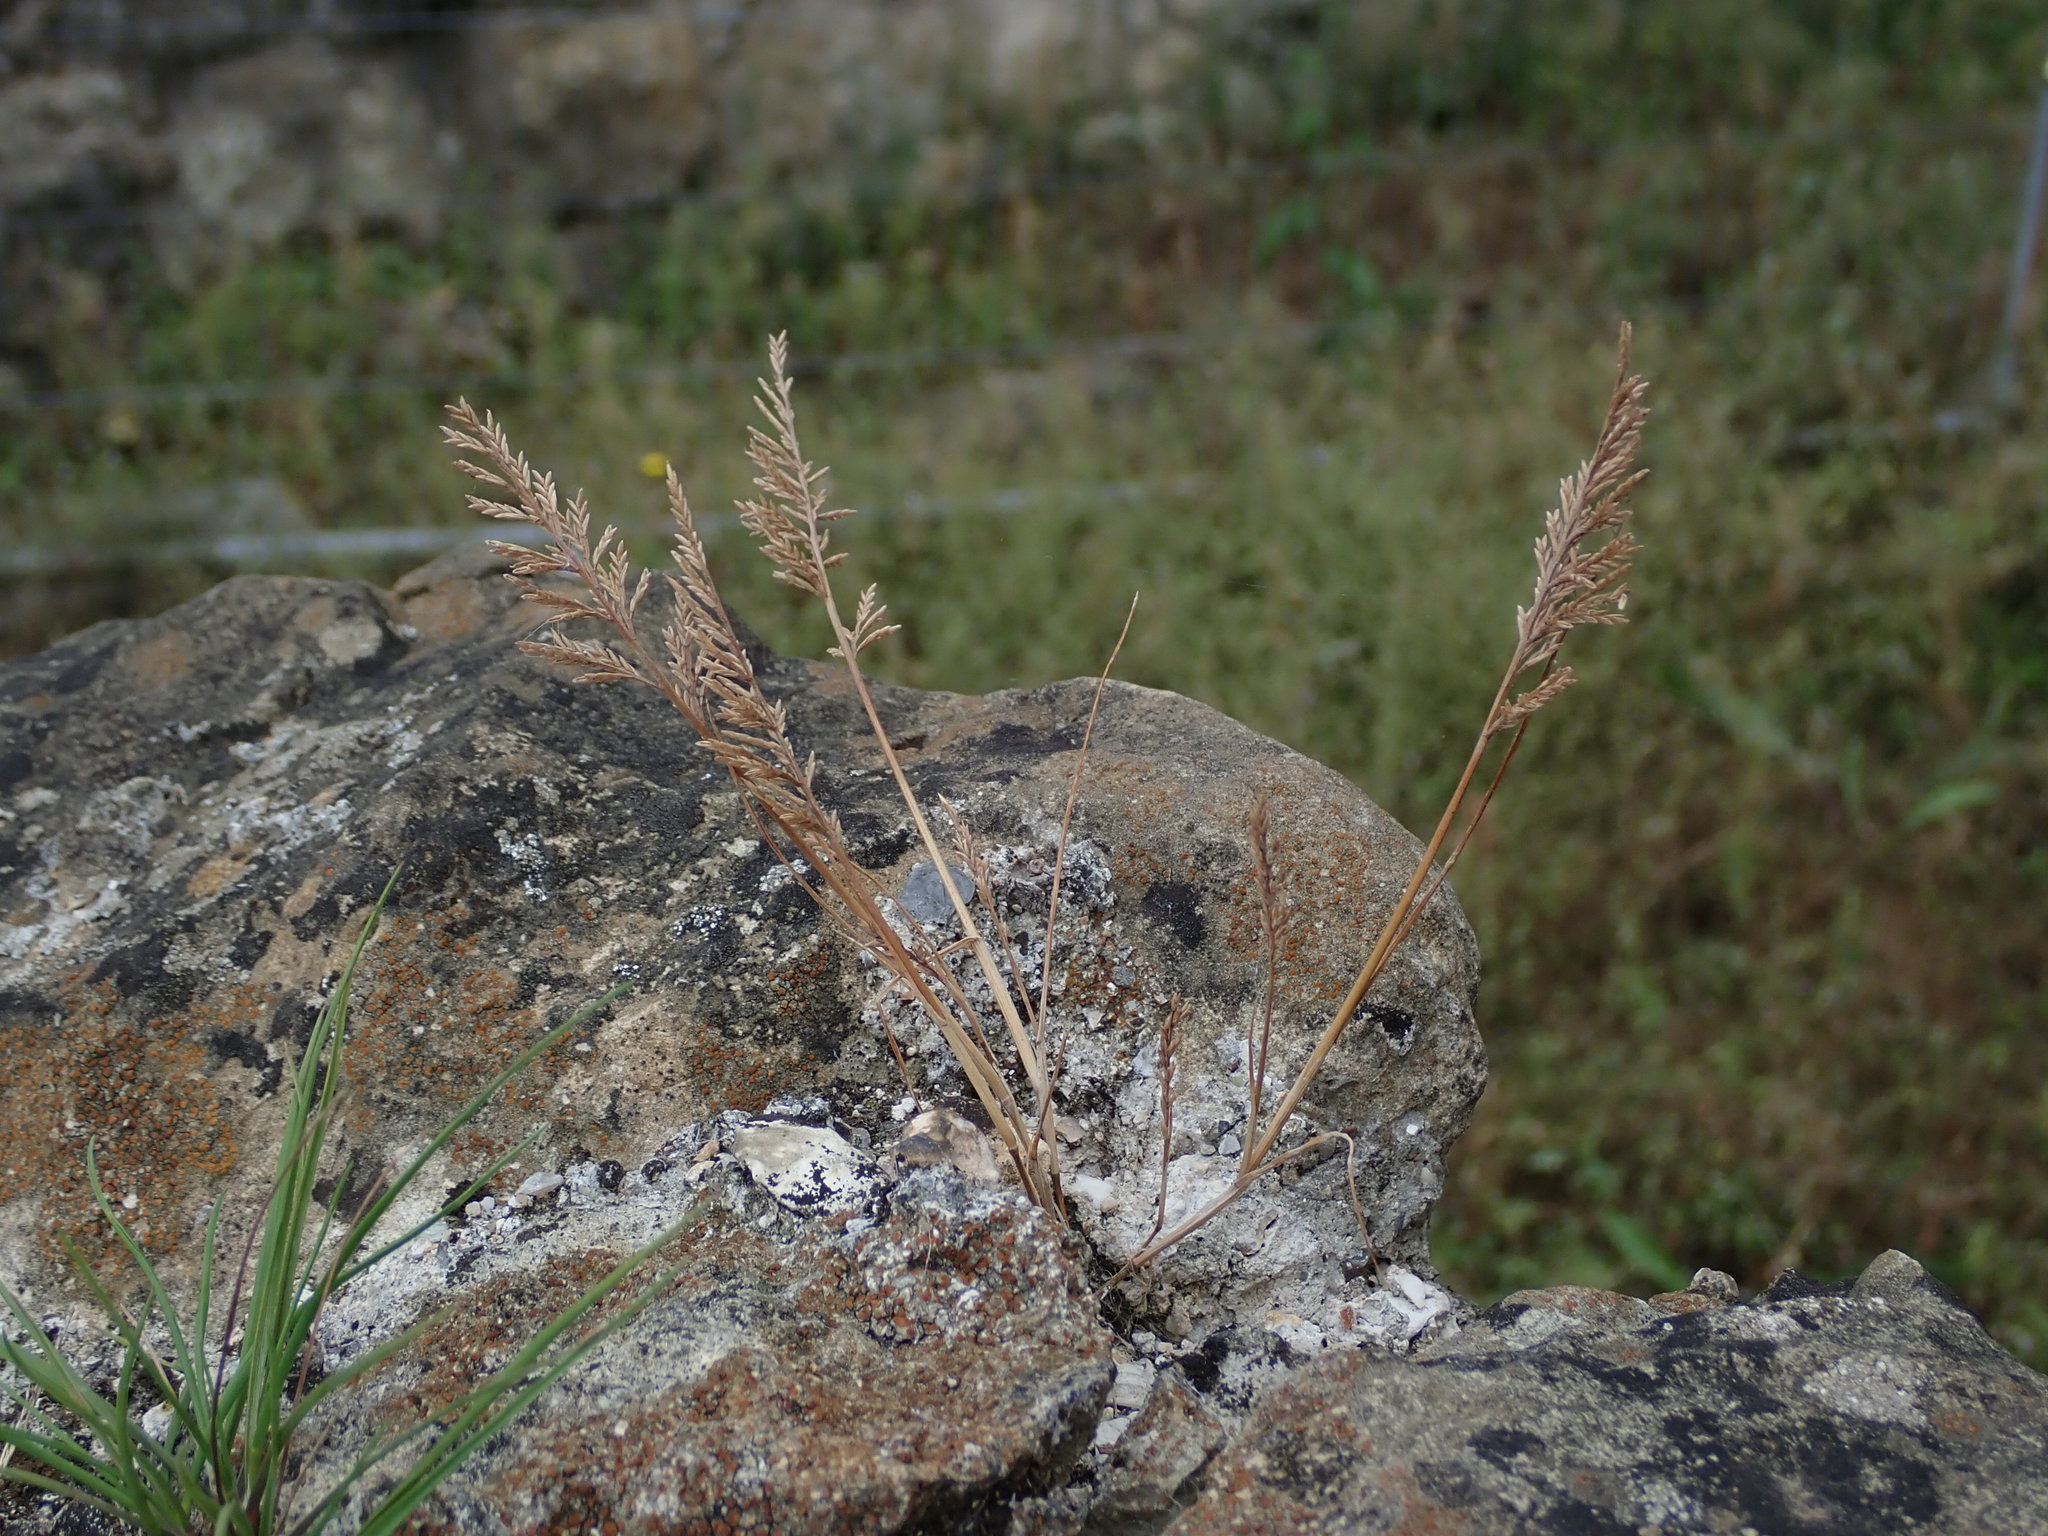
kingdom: Plantae
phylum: Tracheophyta
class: Liliopsida
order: Poales
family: Poaceae
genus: Catapodium
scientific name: Catapodium rigidum
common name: Fern-grass
